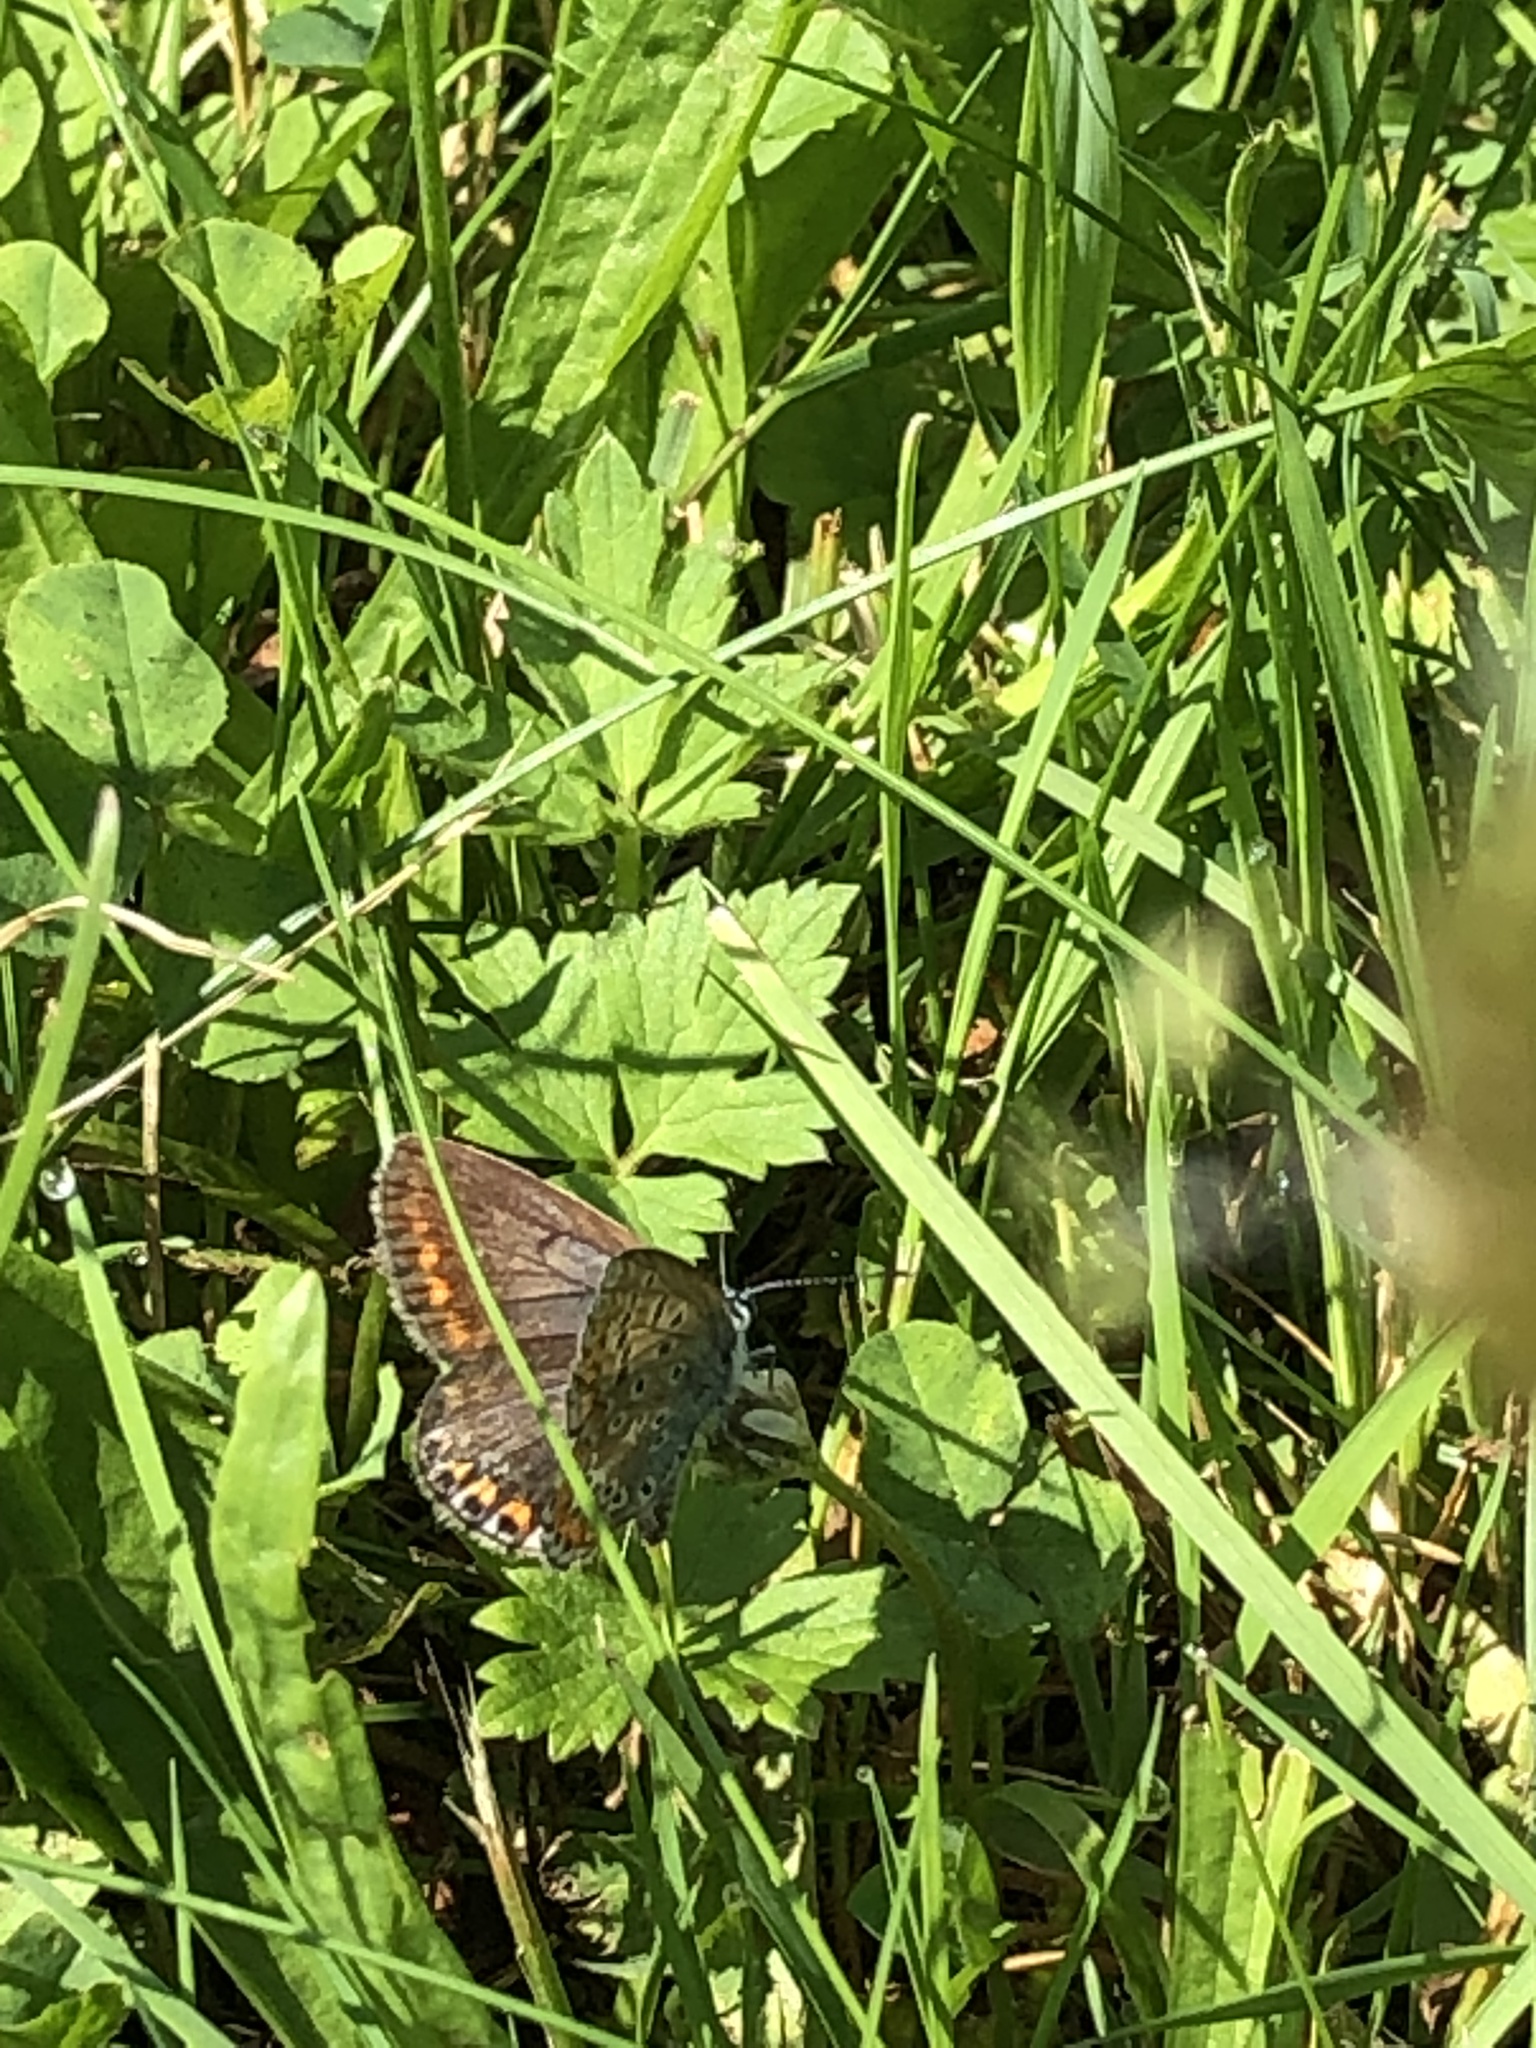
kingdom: Animalia
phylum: Arthropoda
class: Insecta
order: Lepidoptera
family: Lycaenidae
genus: Polyommatus
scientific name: Polyommatus icarus
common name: Common blue
